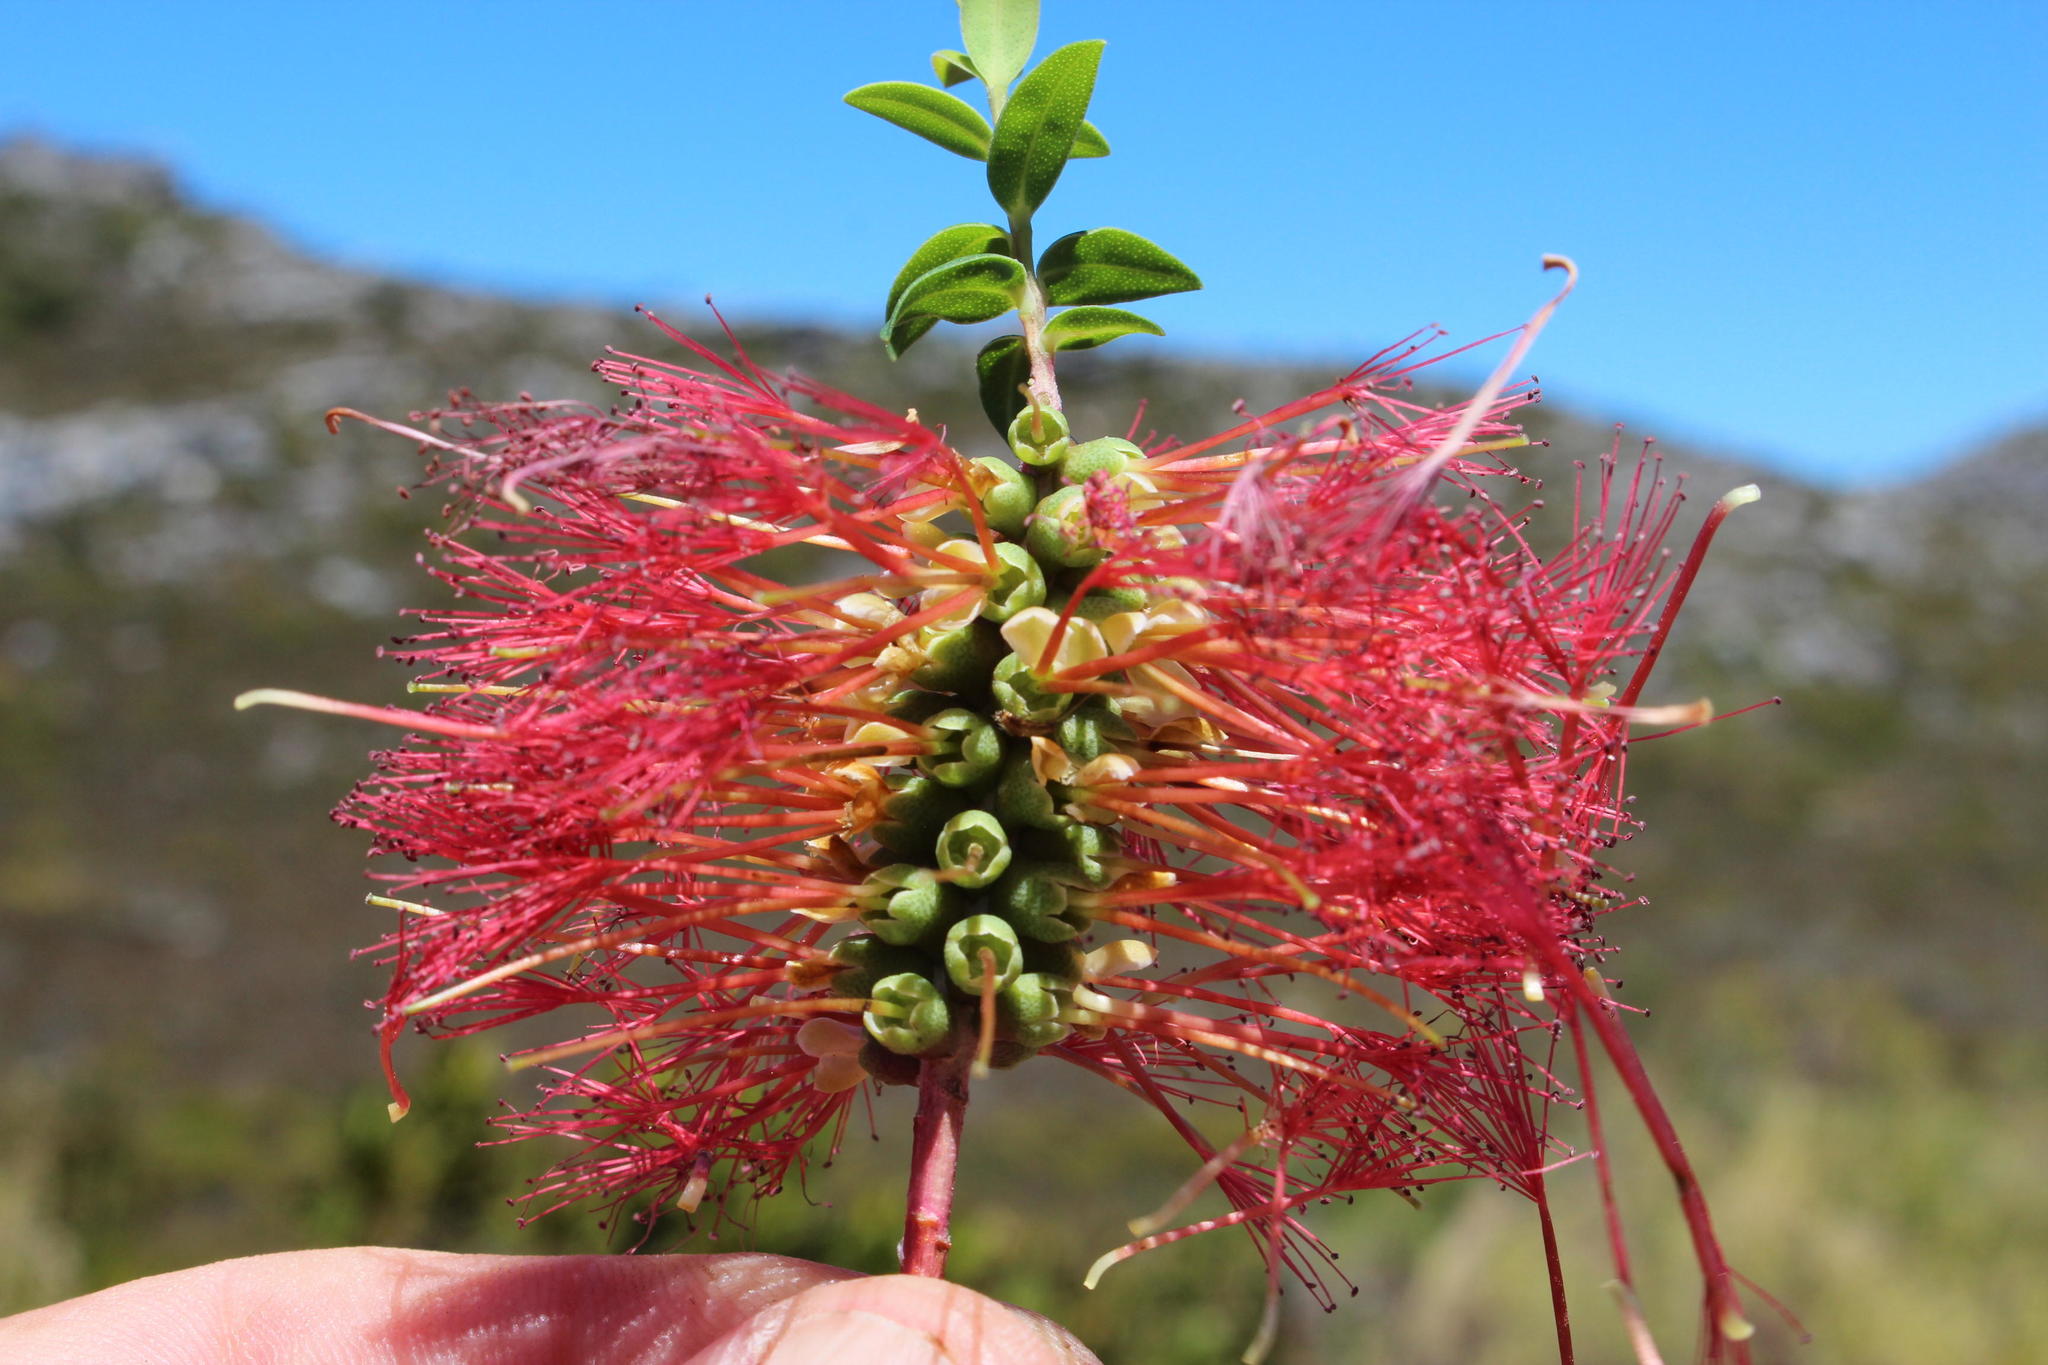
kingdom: Plantae
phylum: Tracheophyta
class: Magnoliopsida
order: Myrtales
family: Myrtaceae
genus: Melaleuca
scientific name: Melaleuca hypericifolia
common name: Red honey myrtle
